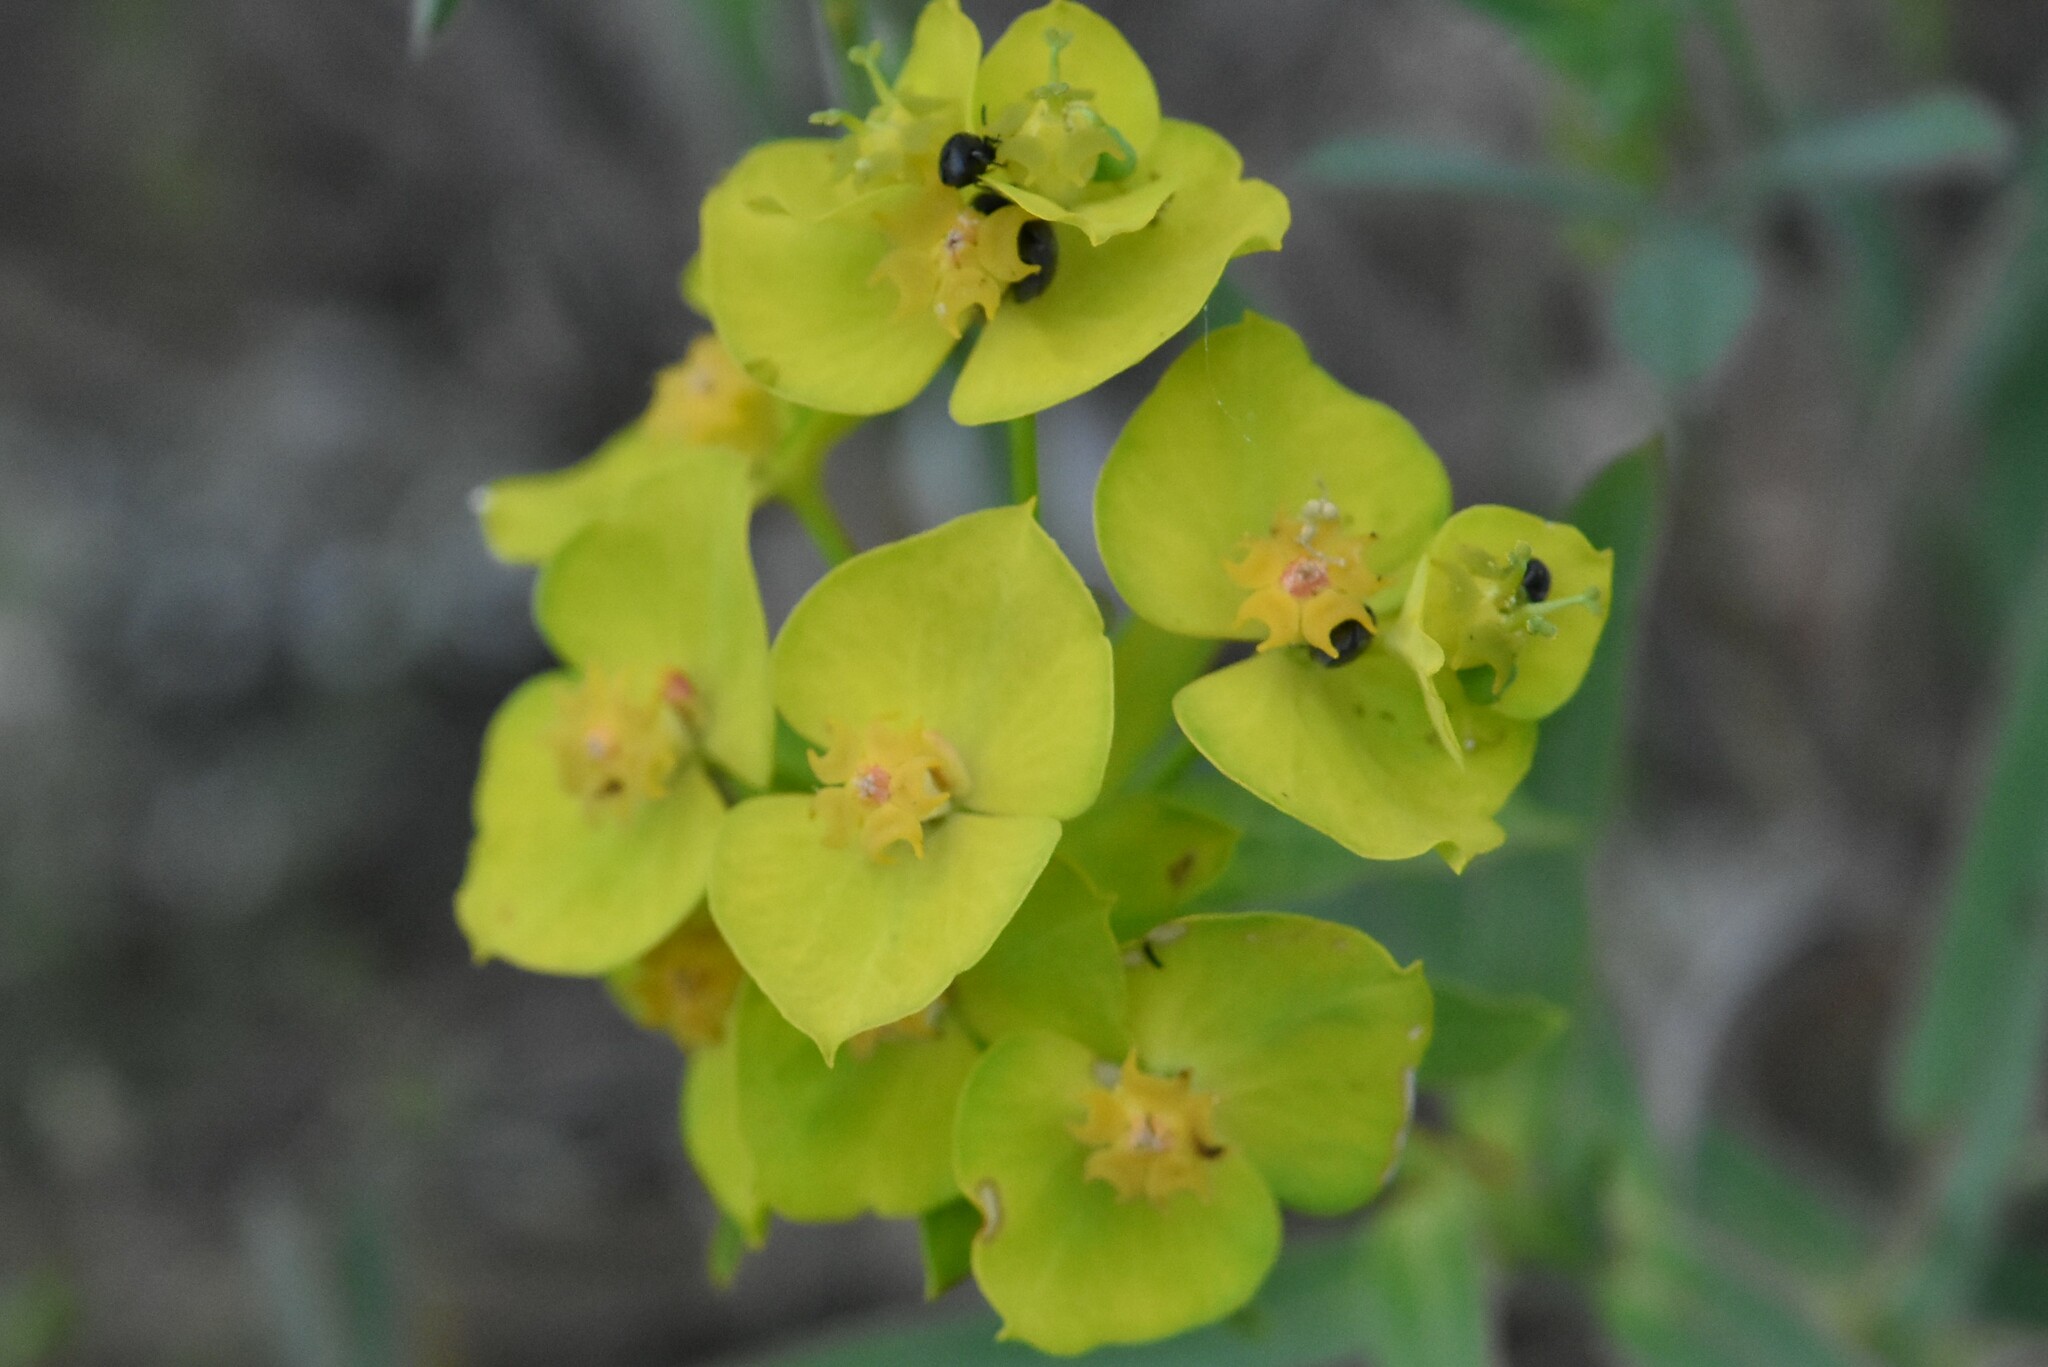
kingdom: Plantae
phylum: Tracheophyta
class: Magnoliopsida
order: Malpighiales
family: Euphorbiaceae
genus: Euphorbia
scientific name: Euphorbia virgata
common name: Leafy spurge
